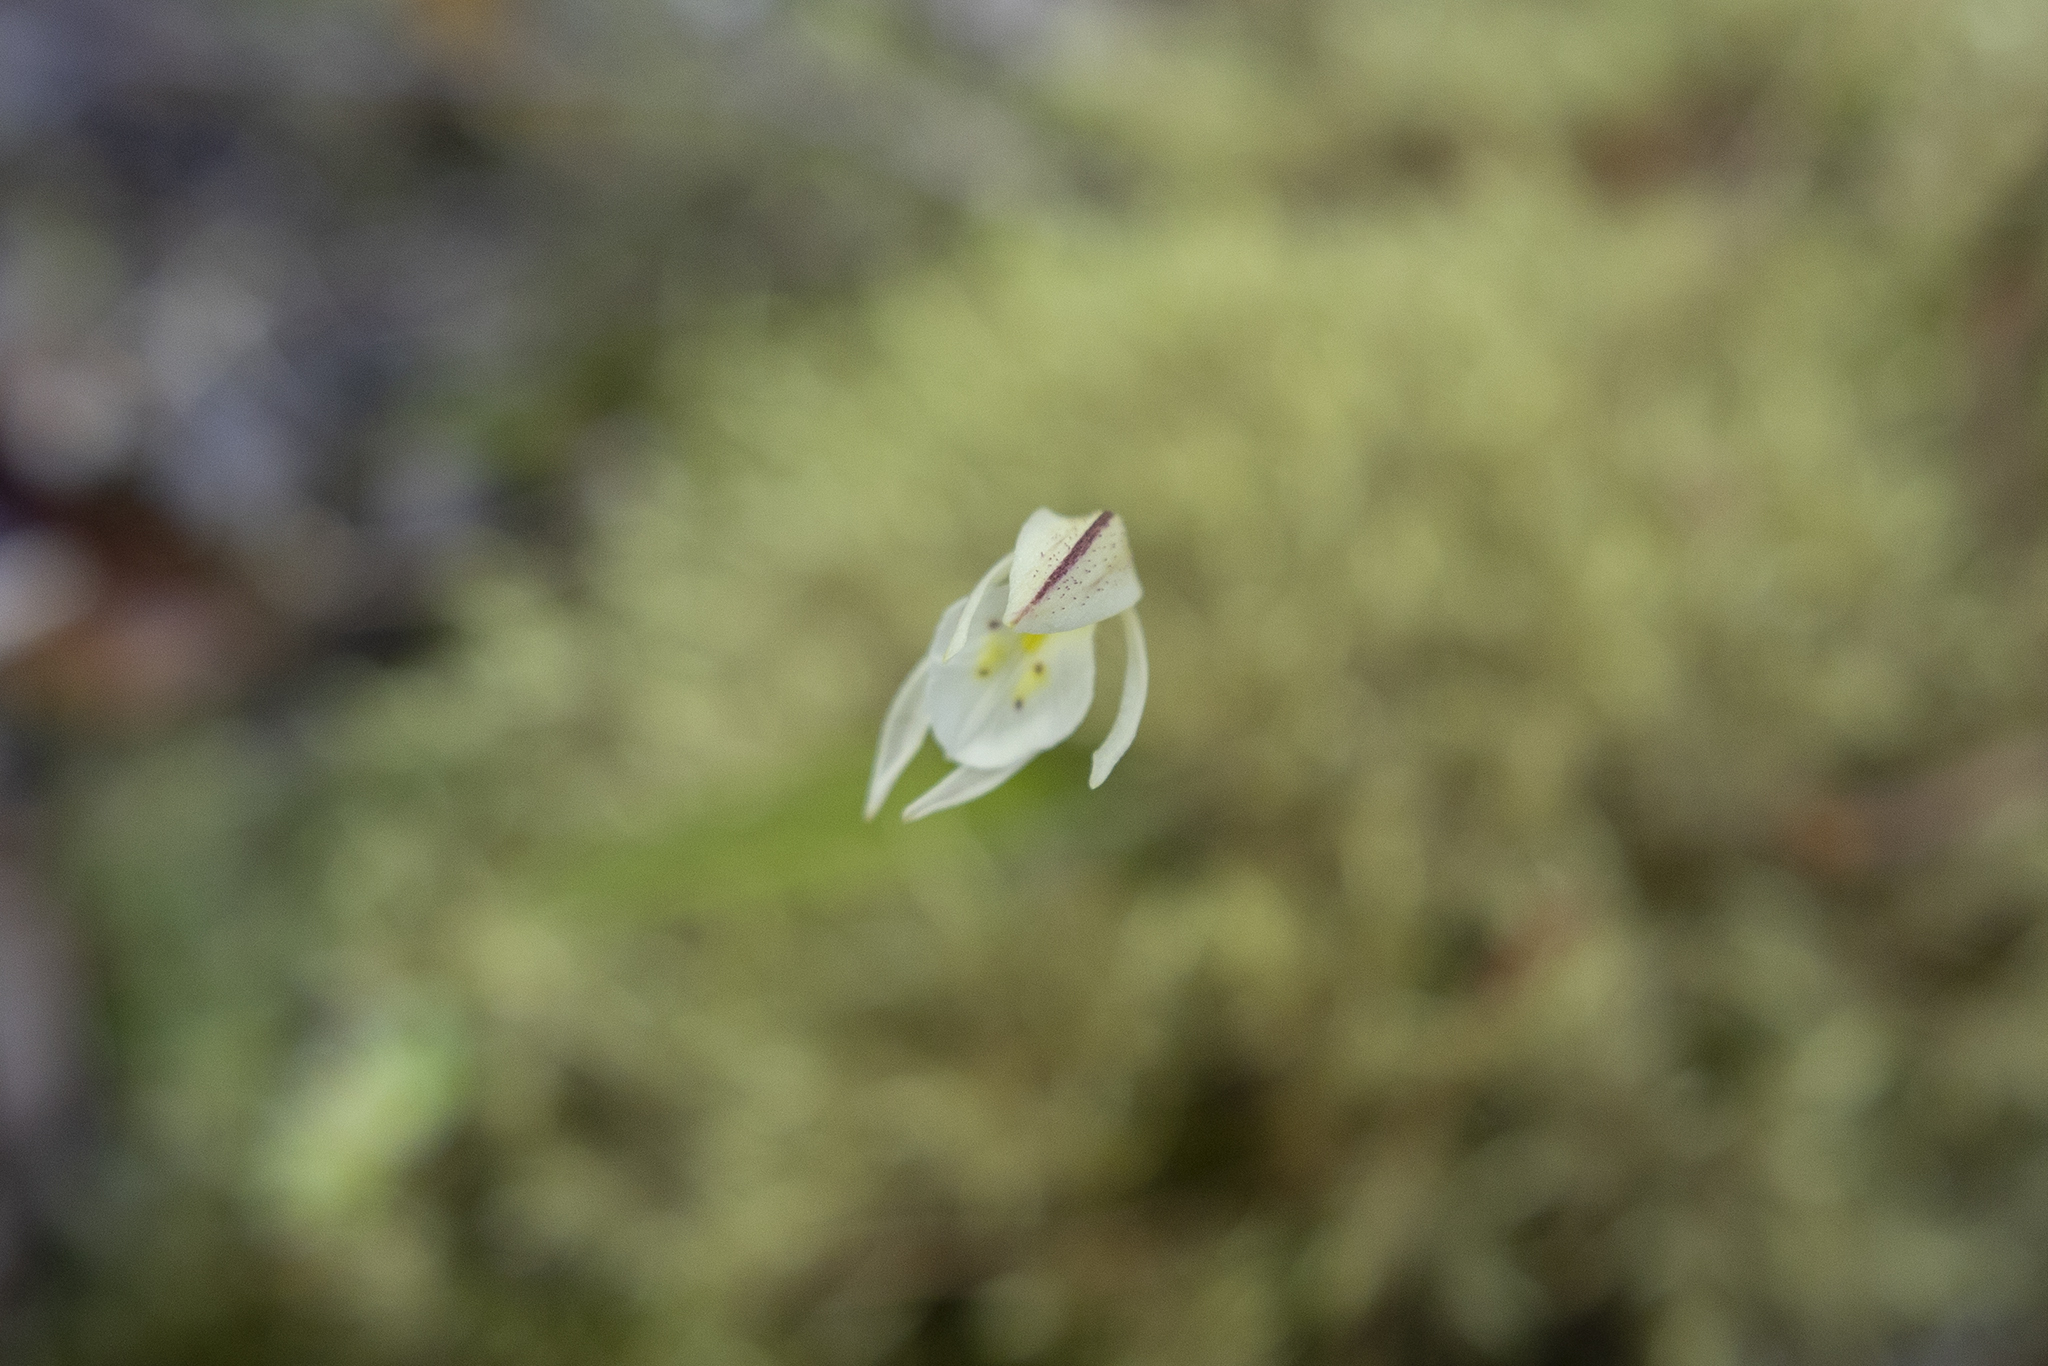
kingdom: Plantae
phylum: Tracheophyta
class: Liliopsida
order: Asparagales
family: Orchidaceae
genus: Aporostylis
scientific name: Aporostylis bifolia
